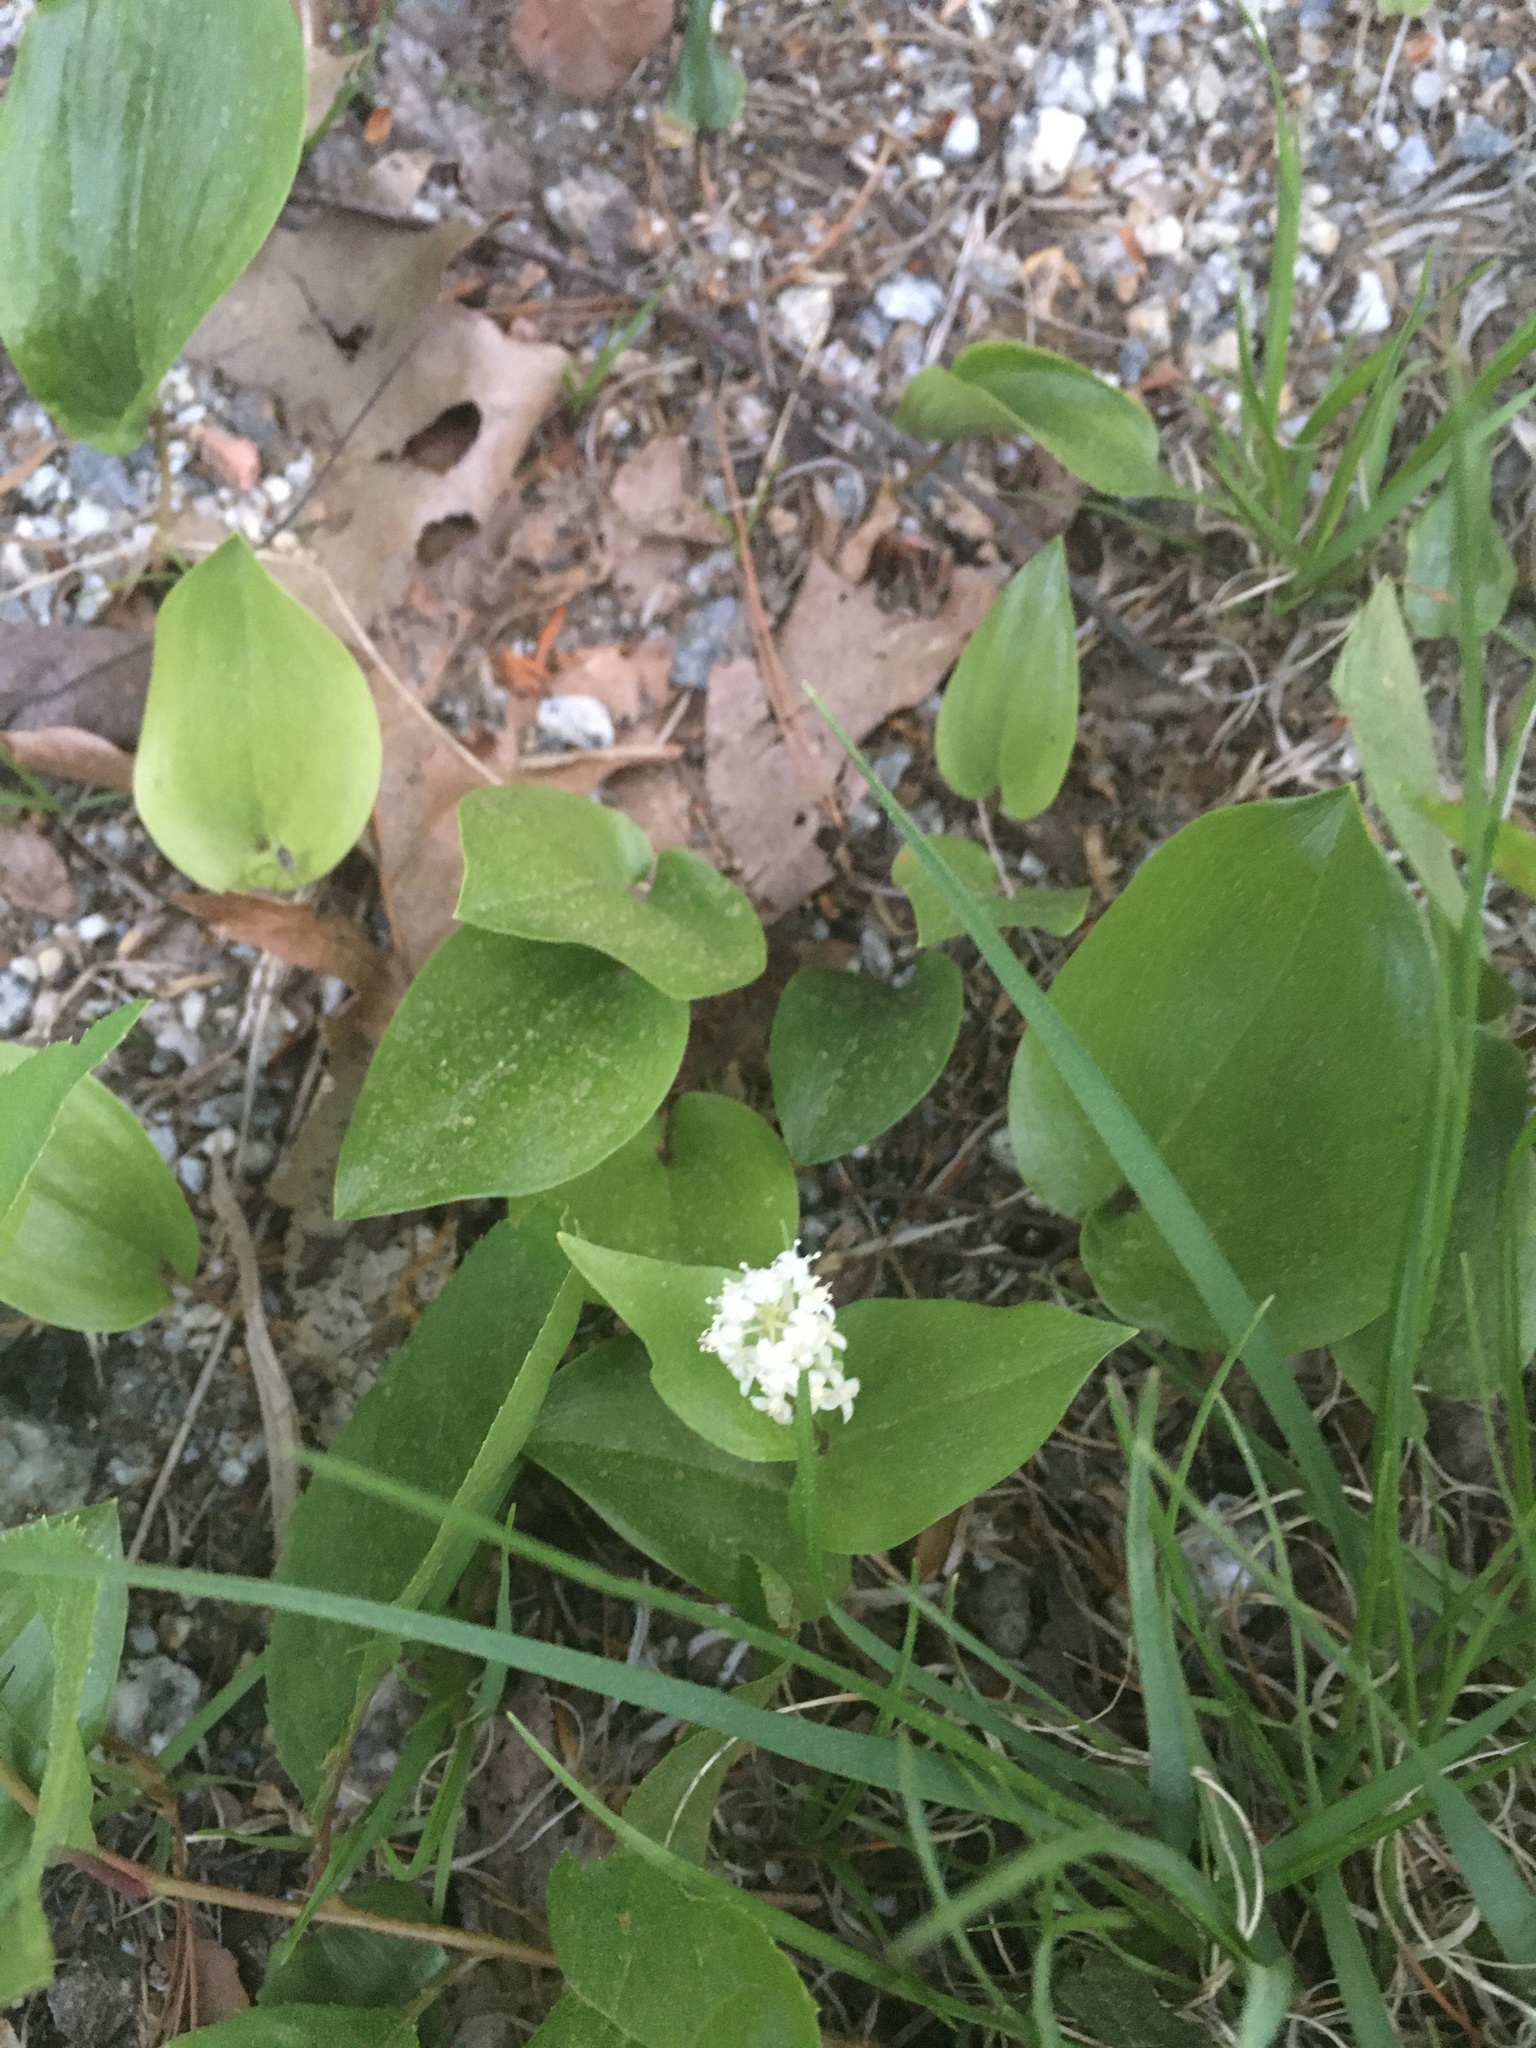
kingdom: Plantae
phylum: Tracheophyta
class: Liliopsida
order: Asparagales
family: Asparagaceae
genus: Maianthemum
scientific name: Maianthemum canadense
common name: False lily-of-the-valley
